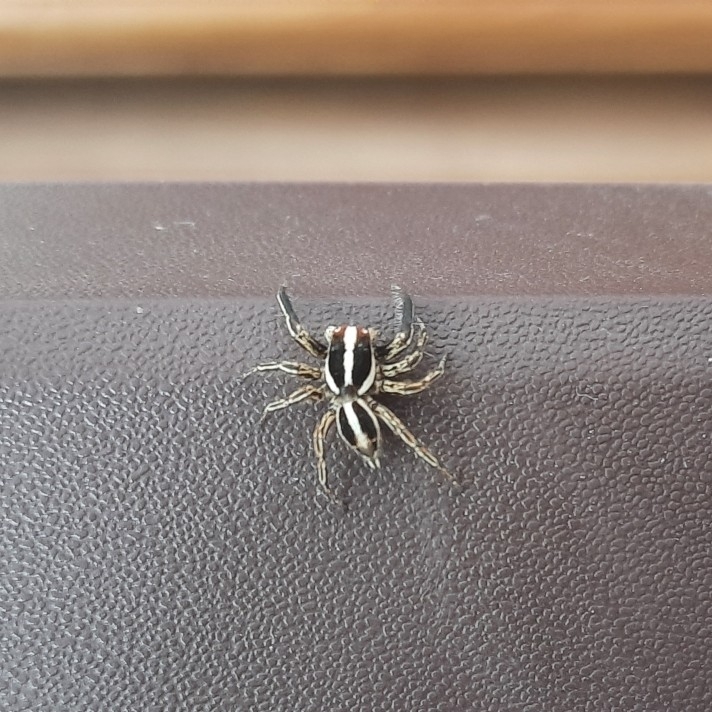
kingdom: Animalia
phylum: Arthropoda
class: Arachnida
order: Araneae
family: Salticidae
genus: Plexippus
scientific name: Plexippus paykulli
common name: Pantropical jumper
